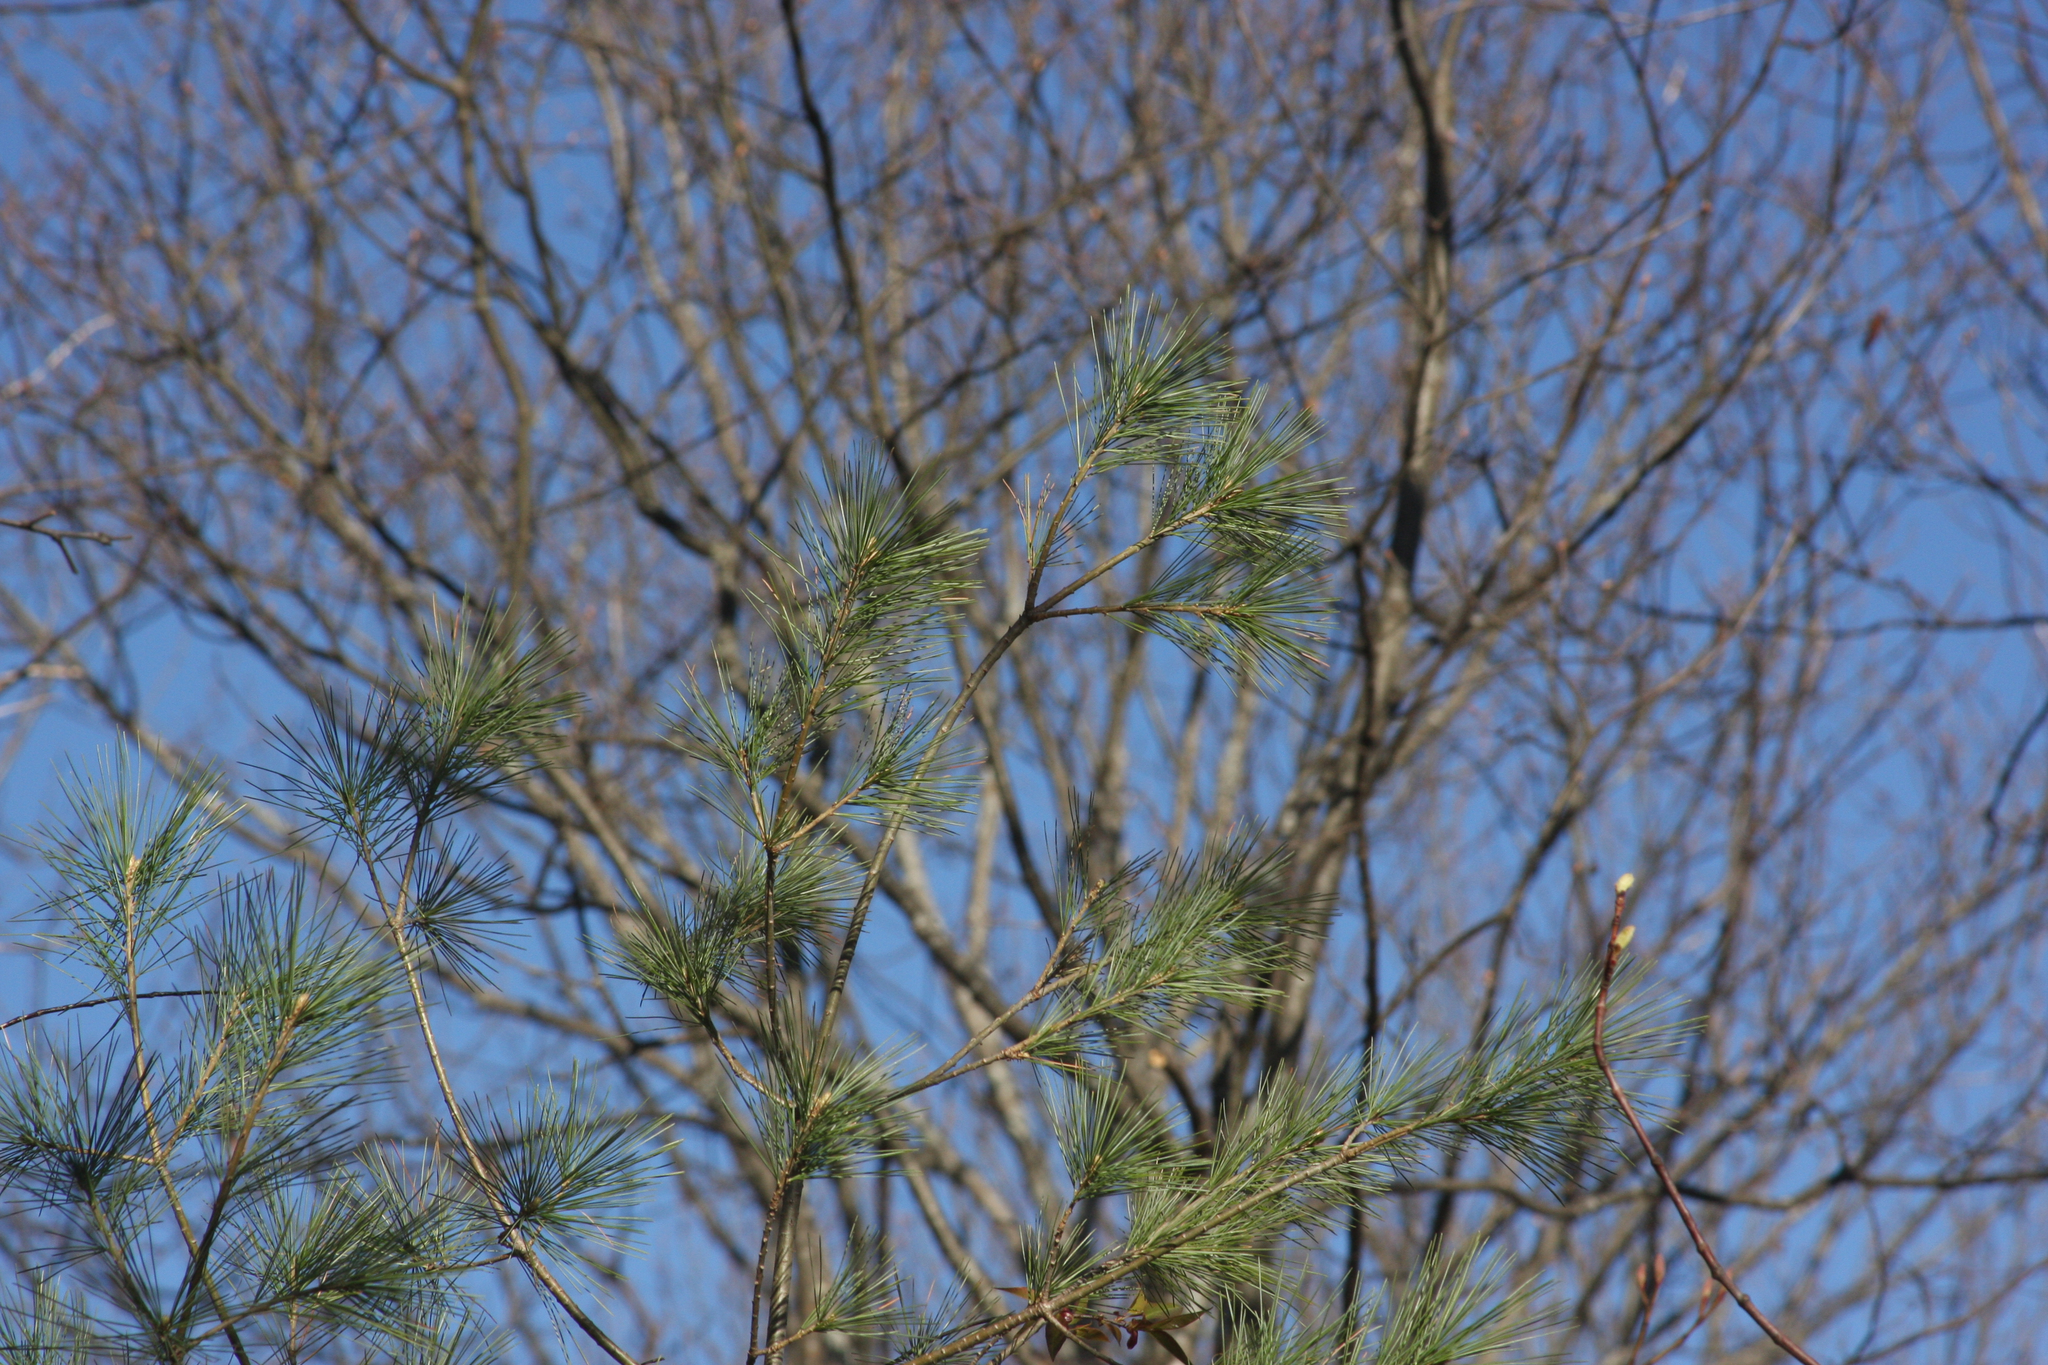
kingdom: Plantae
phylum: Tracheophyta
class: Pinopsida
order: Pinales
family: Pinaceae
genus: Pinus
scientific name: Pinus strobus
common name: Weymouth pine
